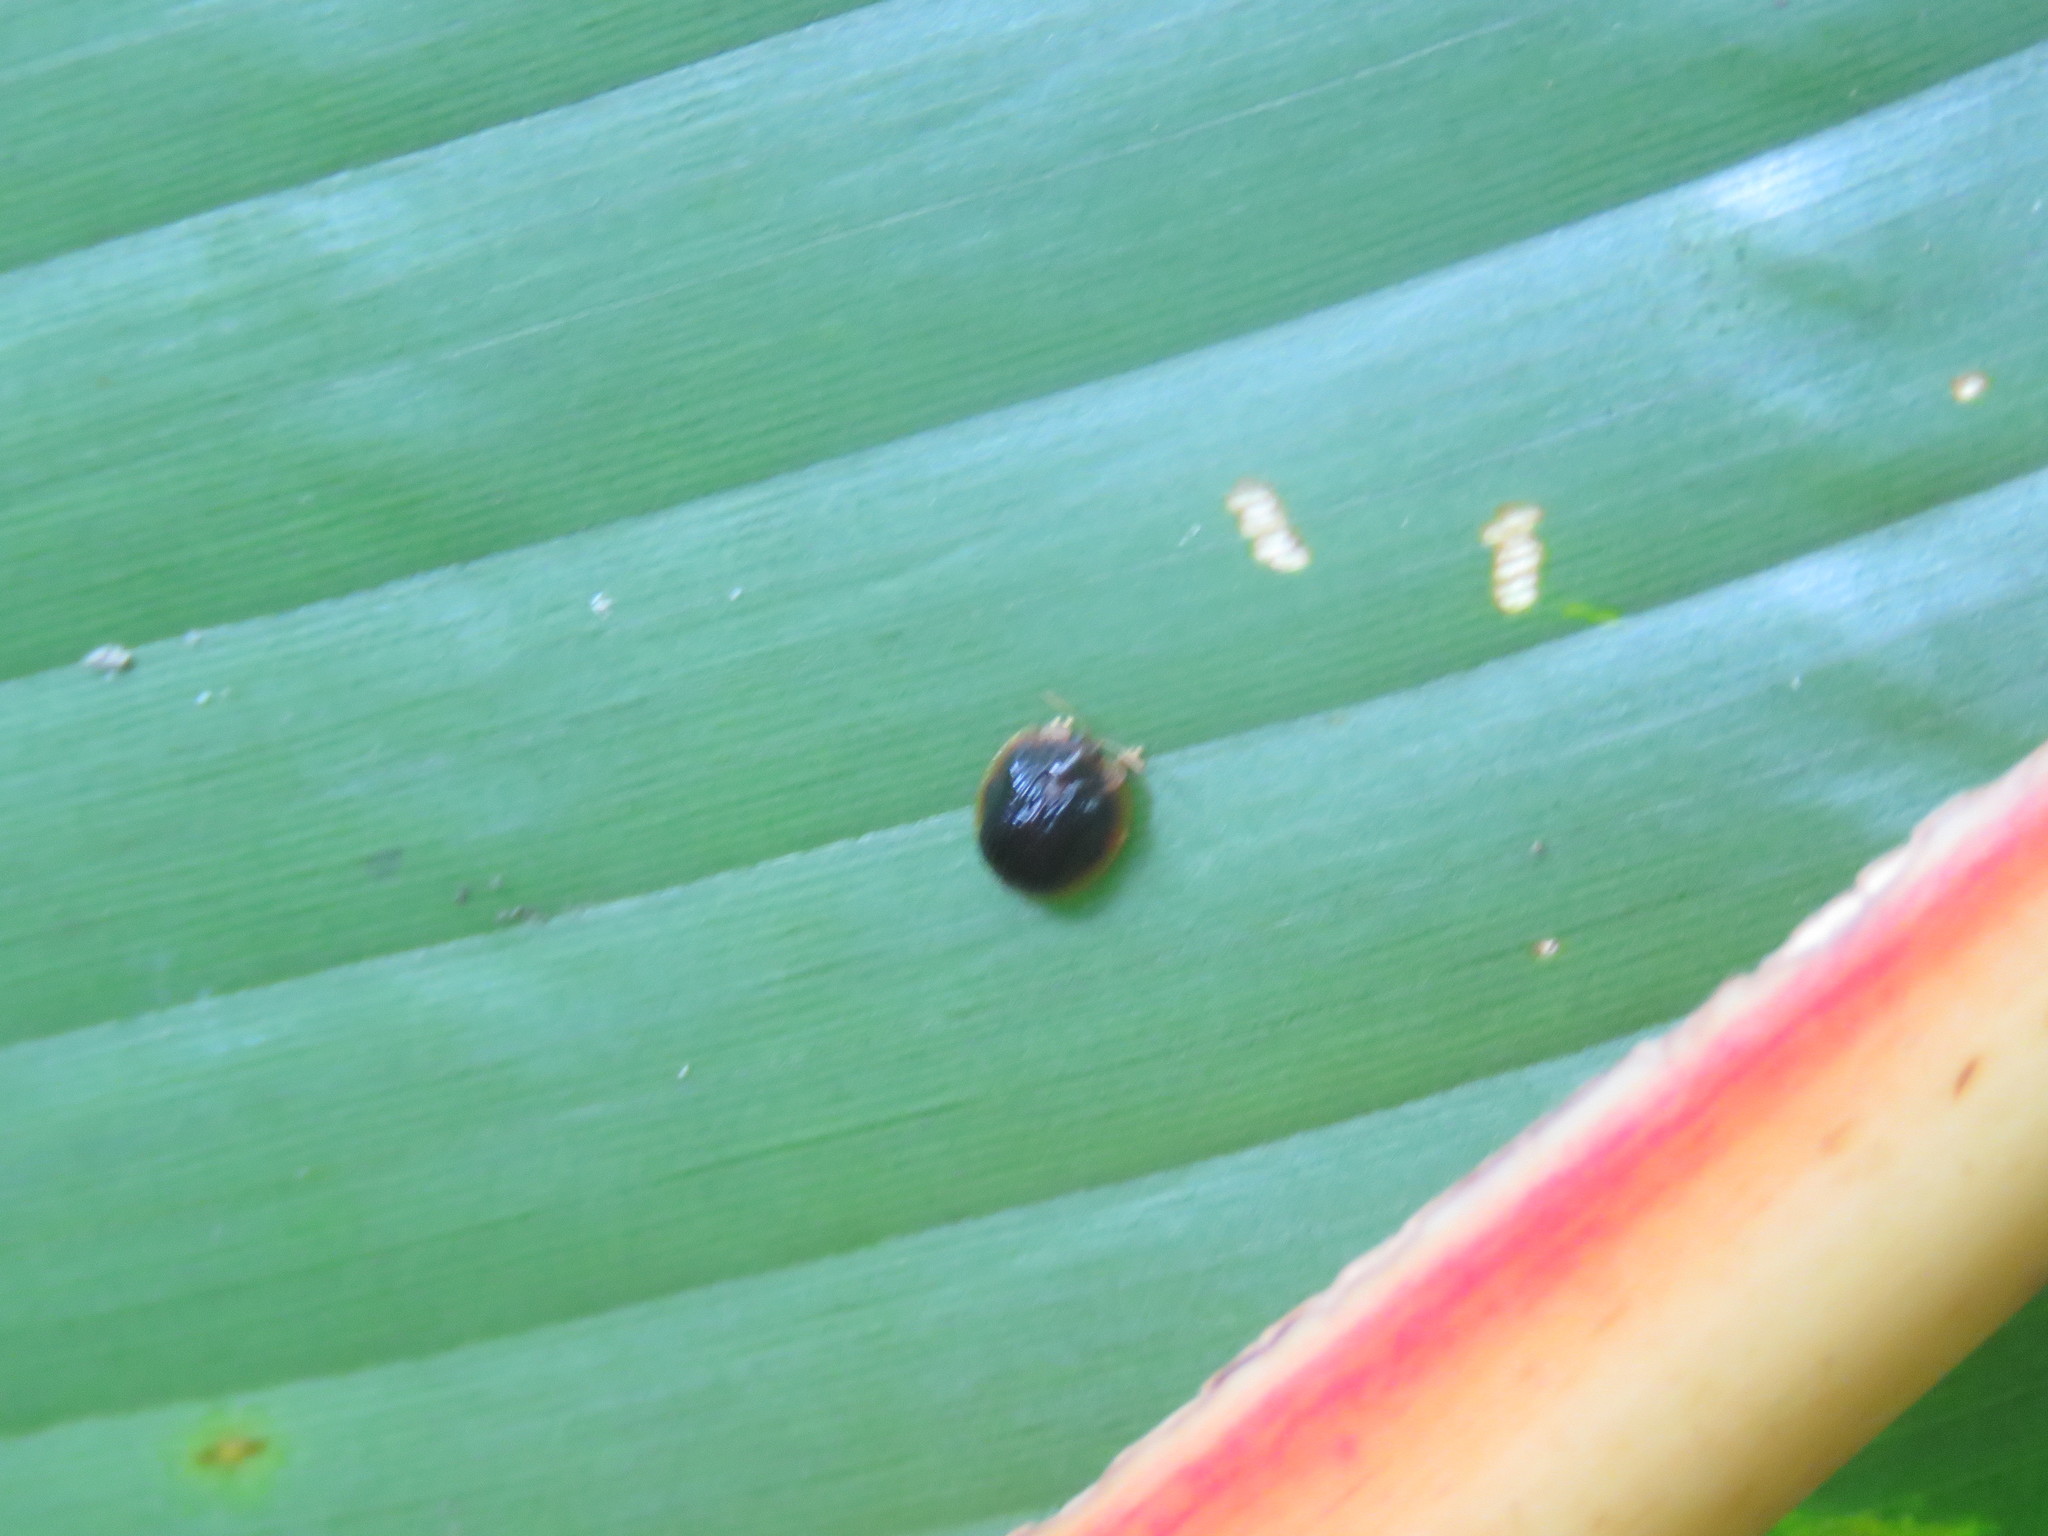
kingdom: Animalia
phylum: Arthropoda
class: Insecta
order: Coleoptera
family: Chrysomelidae
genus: Spaethiella
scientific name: Spaethiella circumdata
